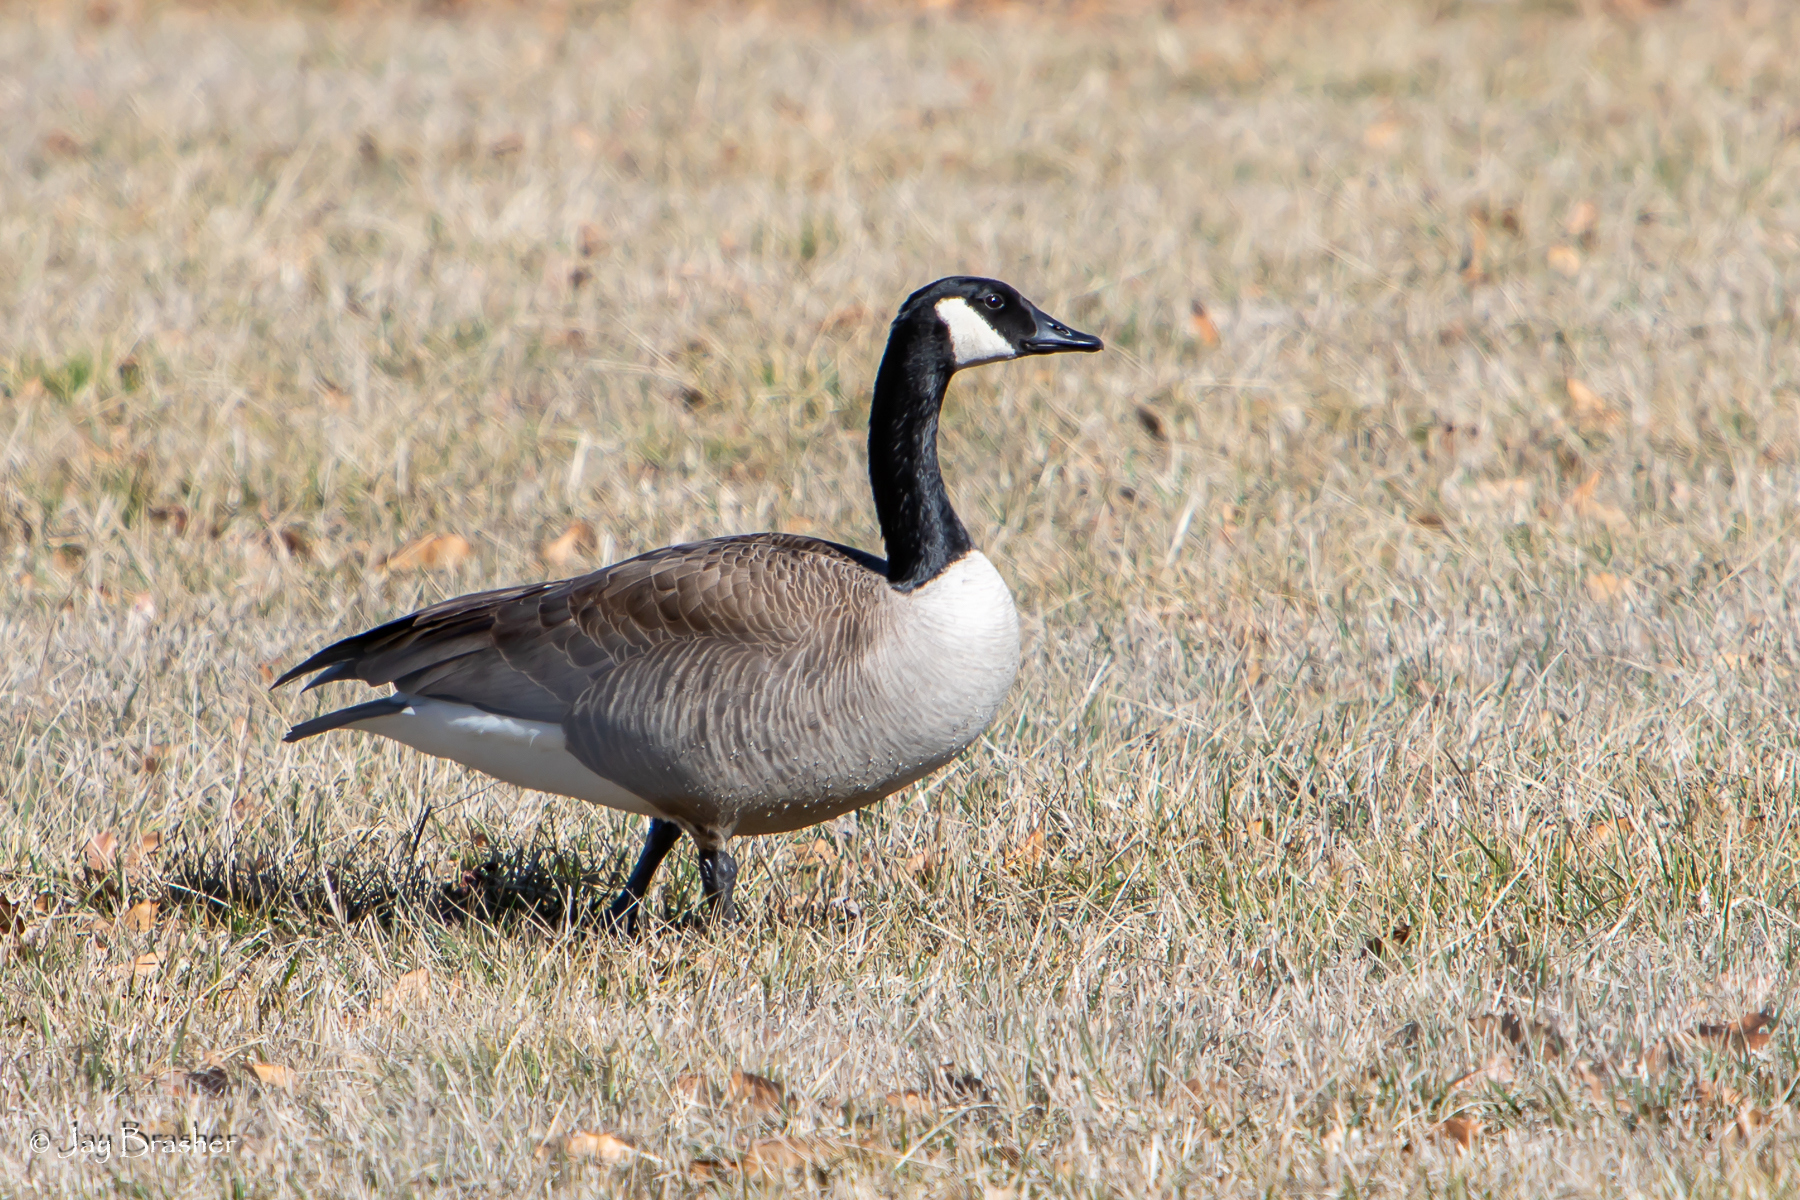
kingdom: Animalia
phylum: Chordata
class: Aves
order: Anseriformes
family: Anatidae
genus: Branta
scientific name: Branta canadensis
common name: Canada goose
